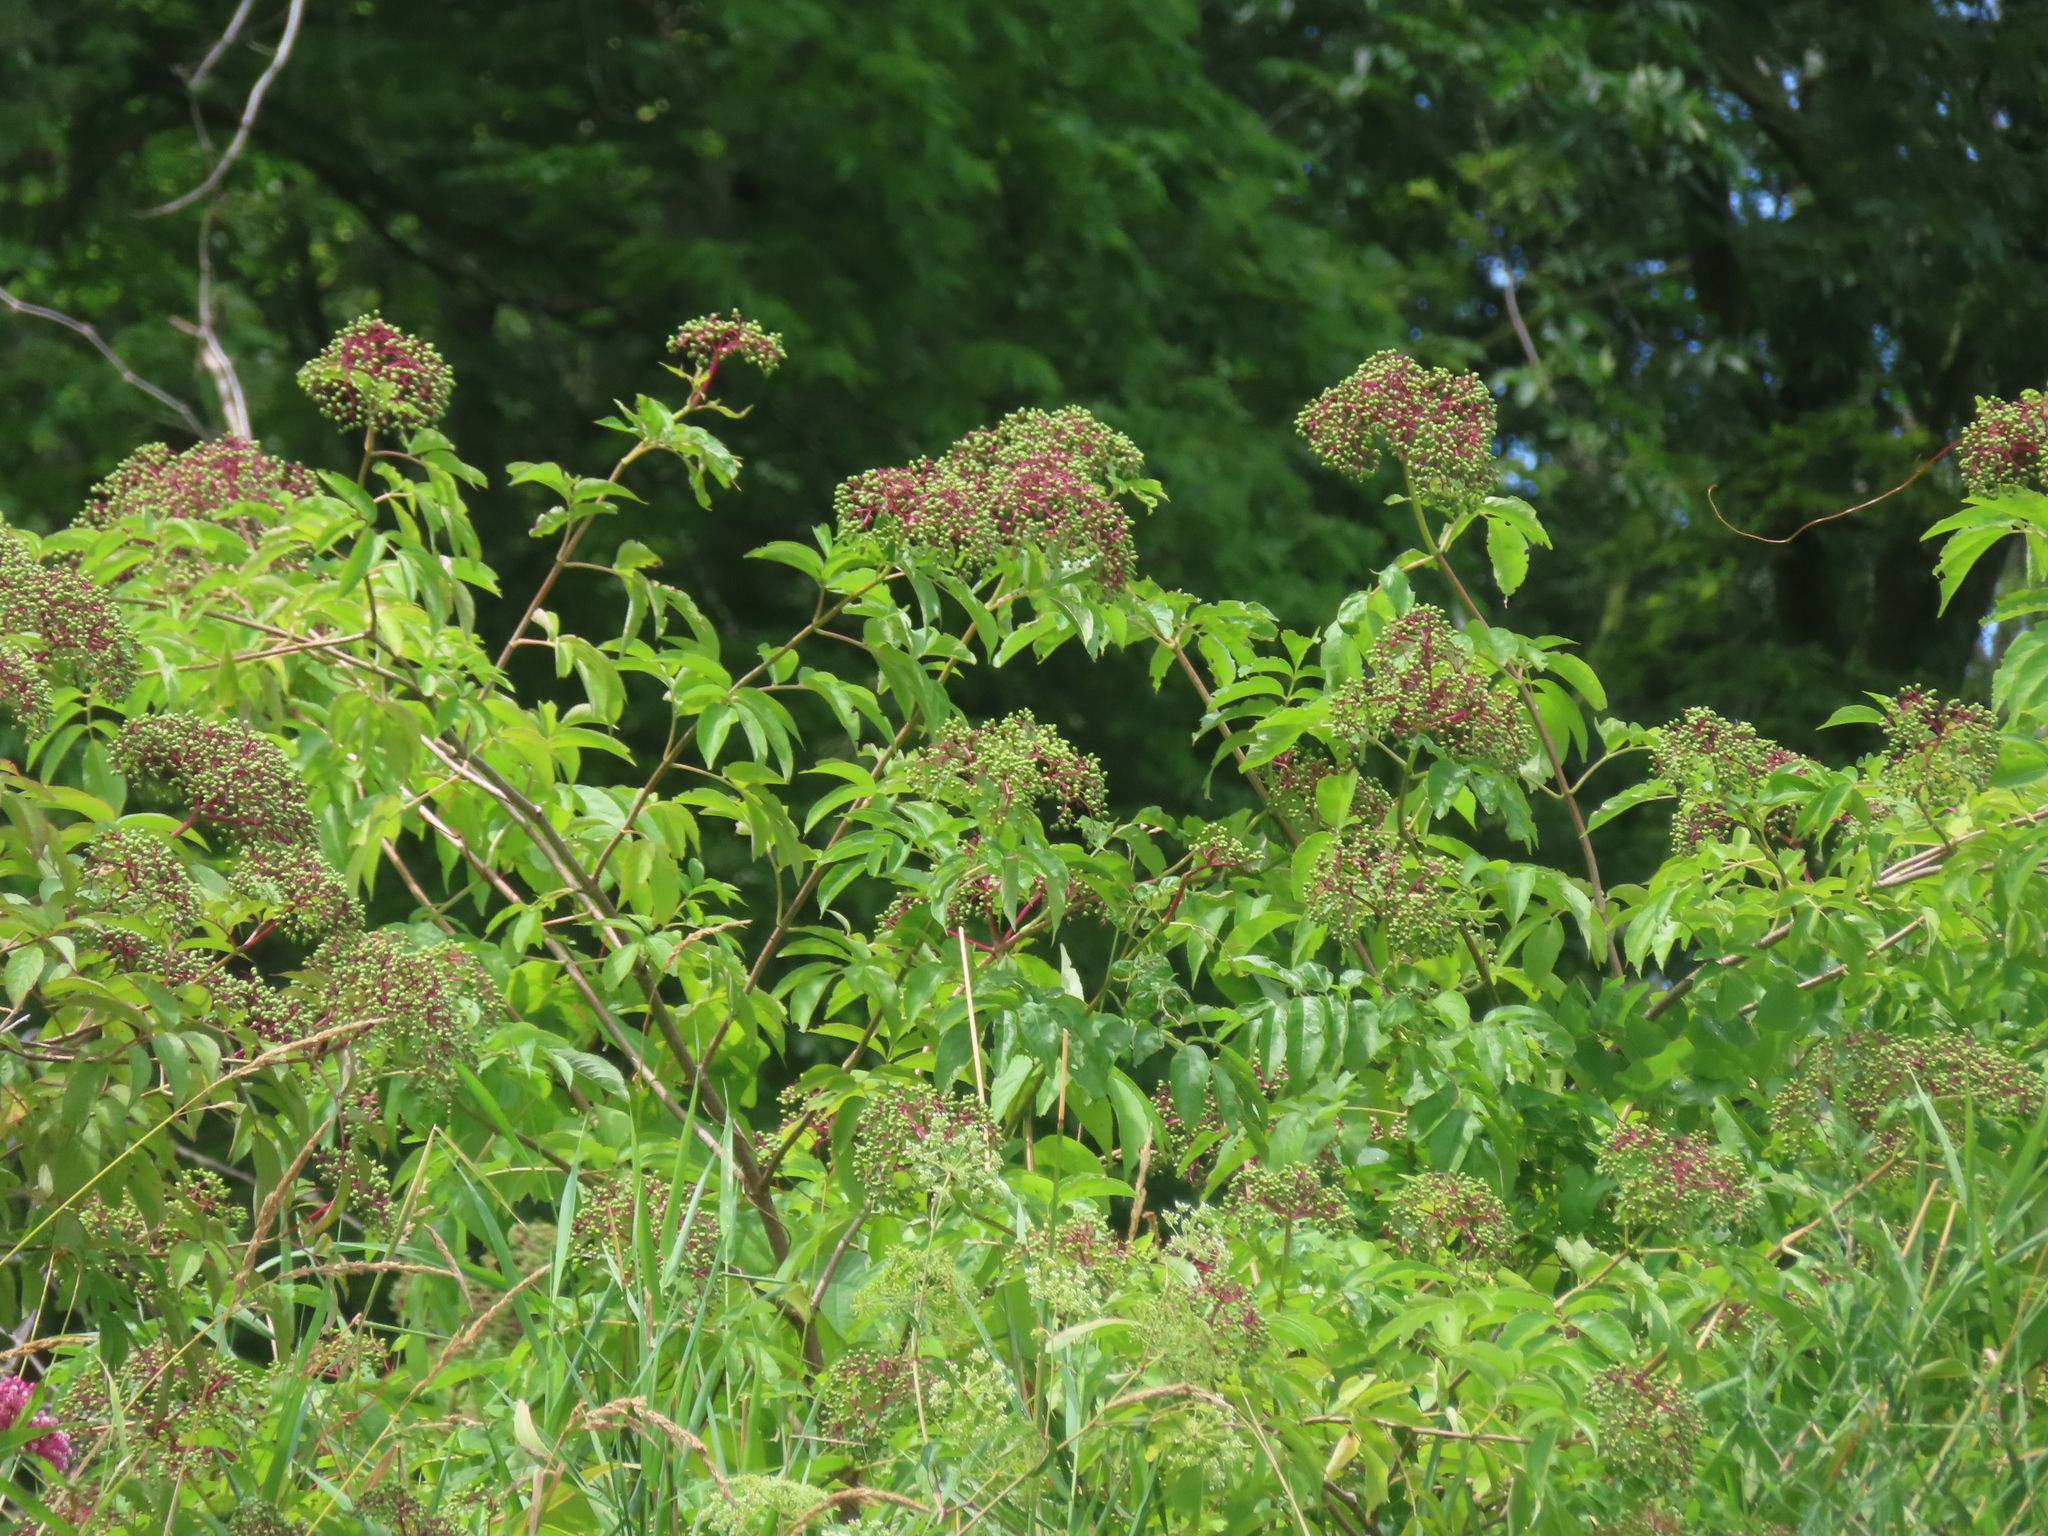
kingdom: Plantae
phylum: Tracheophyta
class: Magnoliopsida
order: Dipsacales
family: Viburnaceae
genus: Sambucus
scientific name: Sambucus canadensis
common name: American elder
